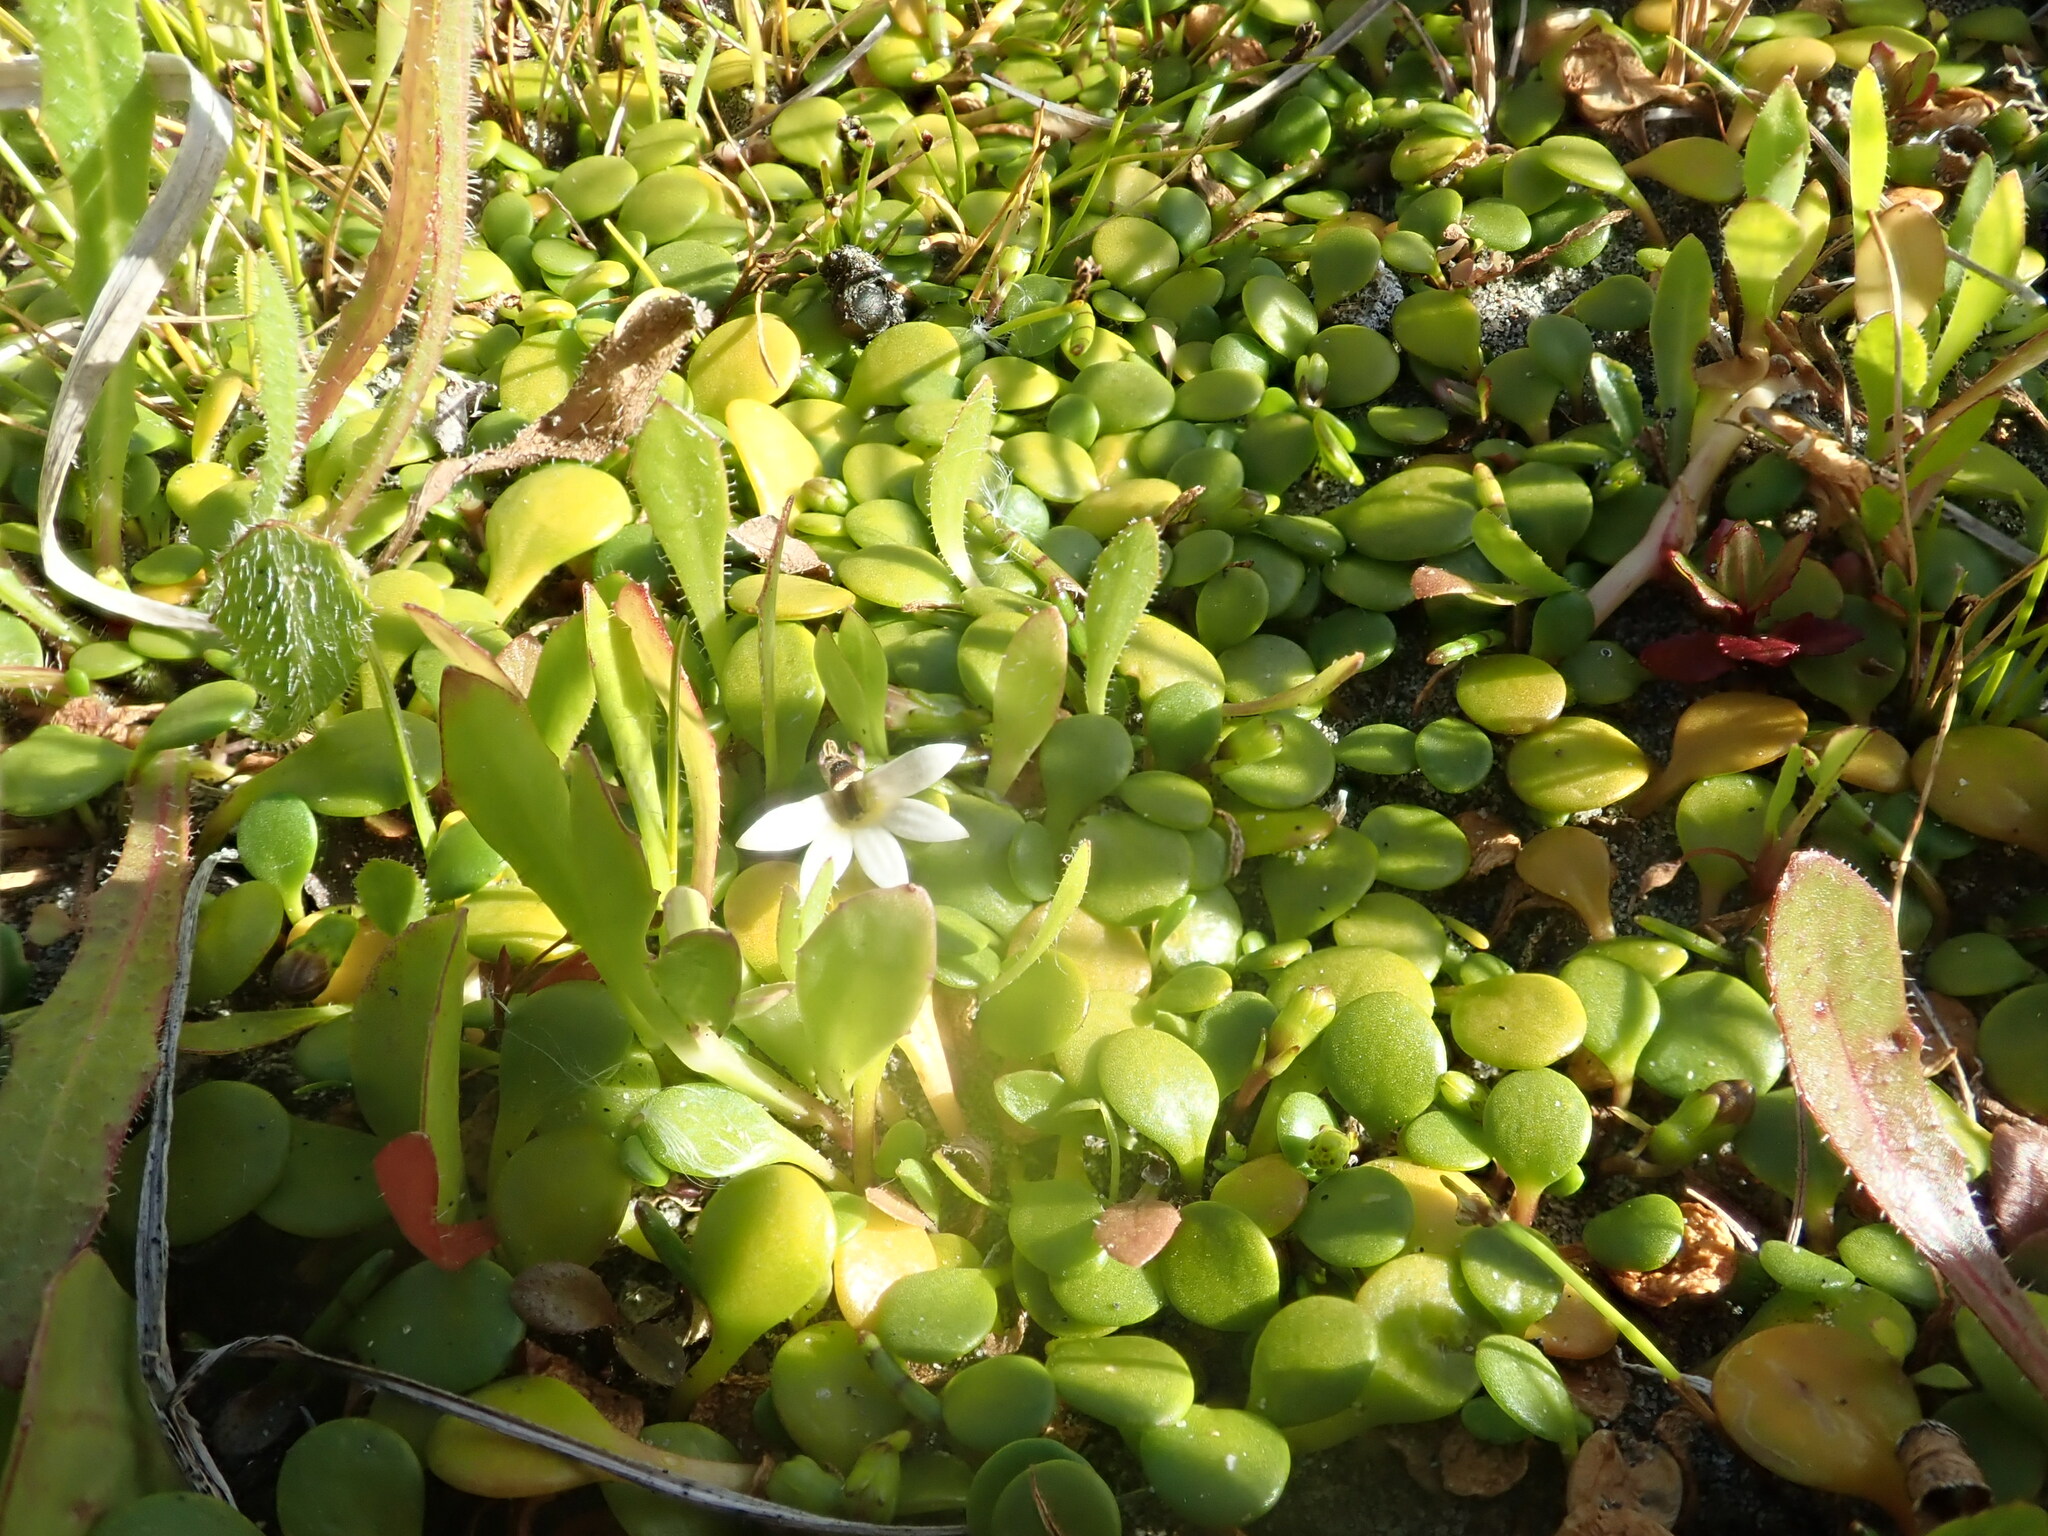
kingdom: Plantae
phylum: Tracheophyta
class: Magnoliopsida
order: Asterales
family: Goodeniaceae
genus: Goodenia
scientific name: Goodenia heenanii
